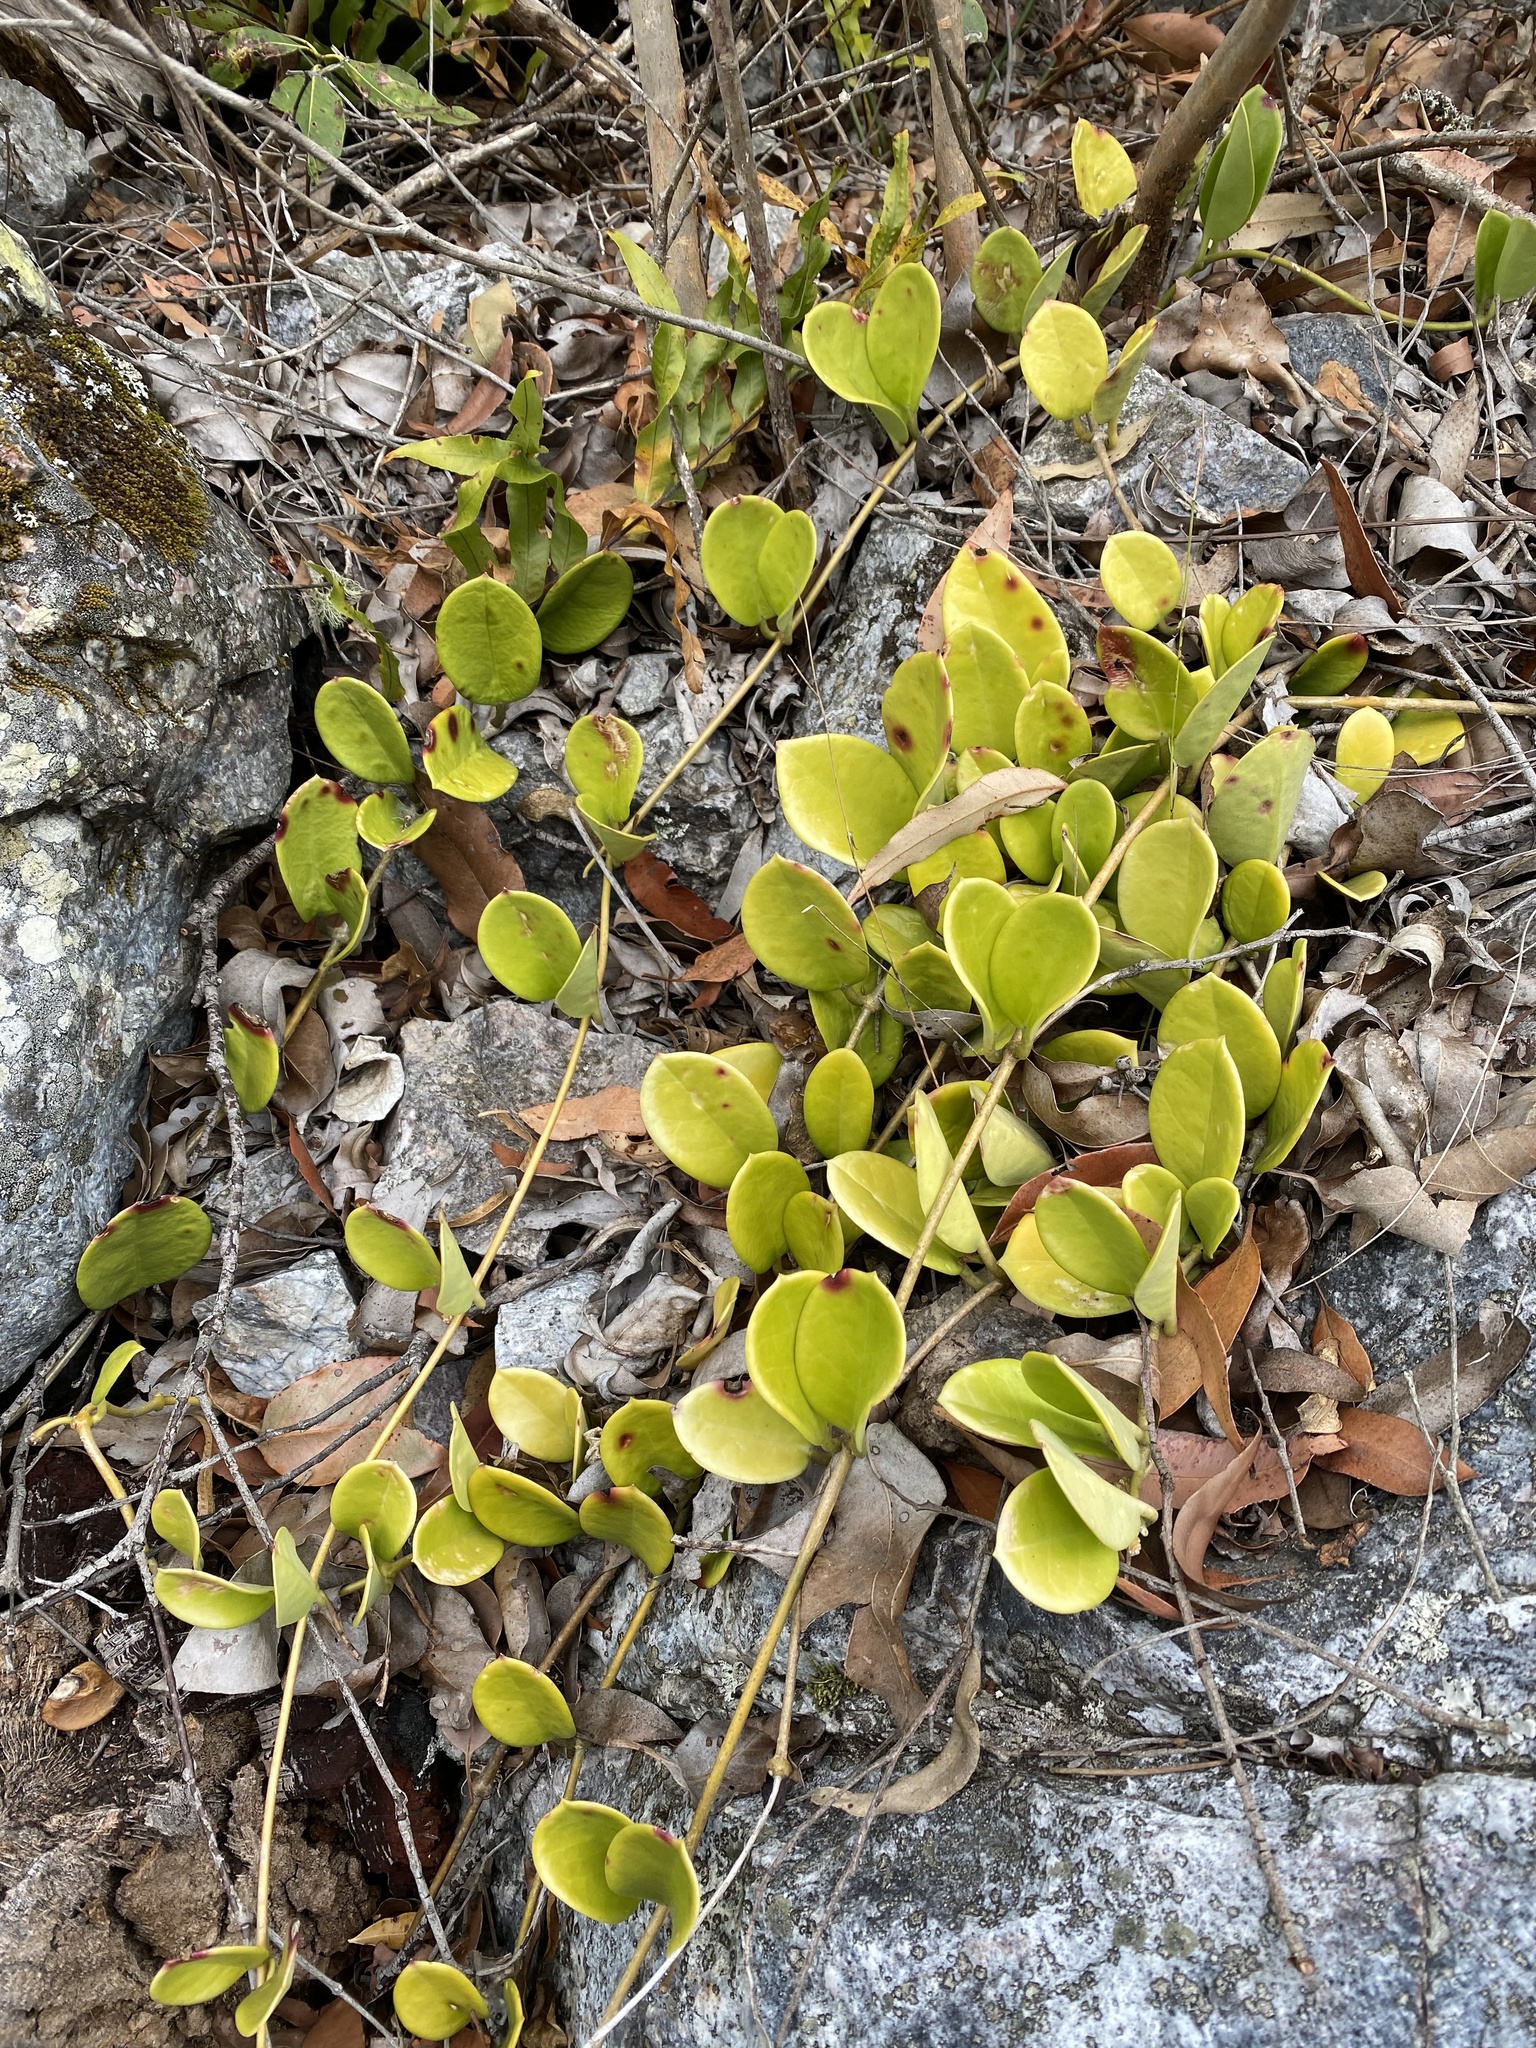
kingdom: Plantae
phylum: Tracheophyta
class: Magnoliopsida
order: Gentianales
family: Apocynaceae
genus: Hoya
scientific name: Hoya australis
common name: Wax flower
